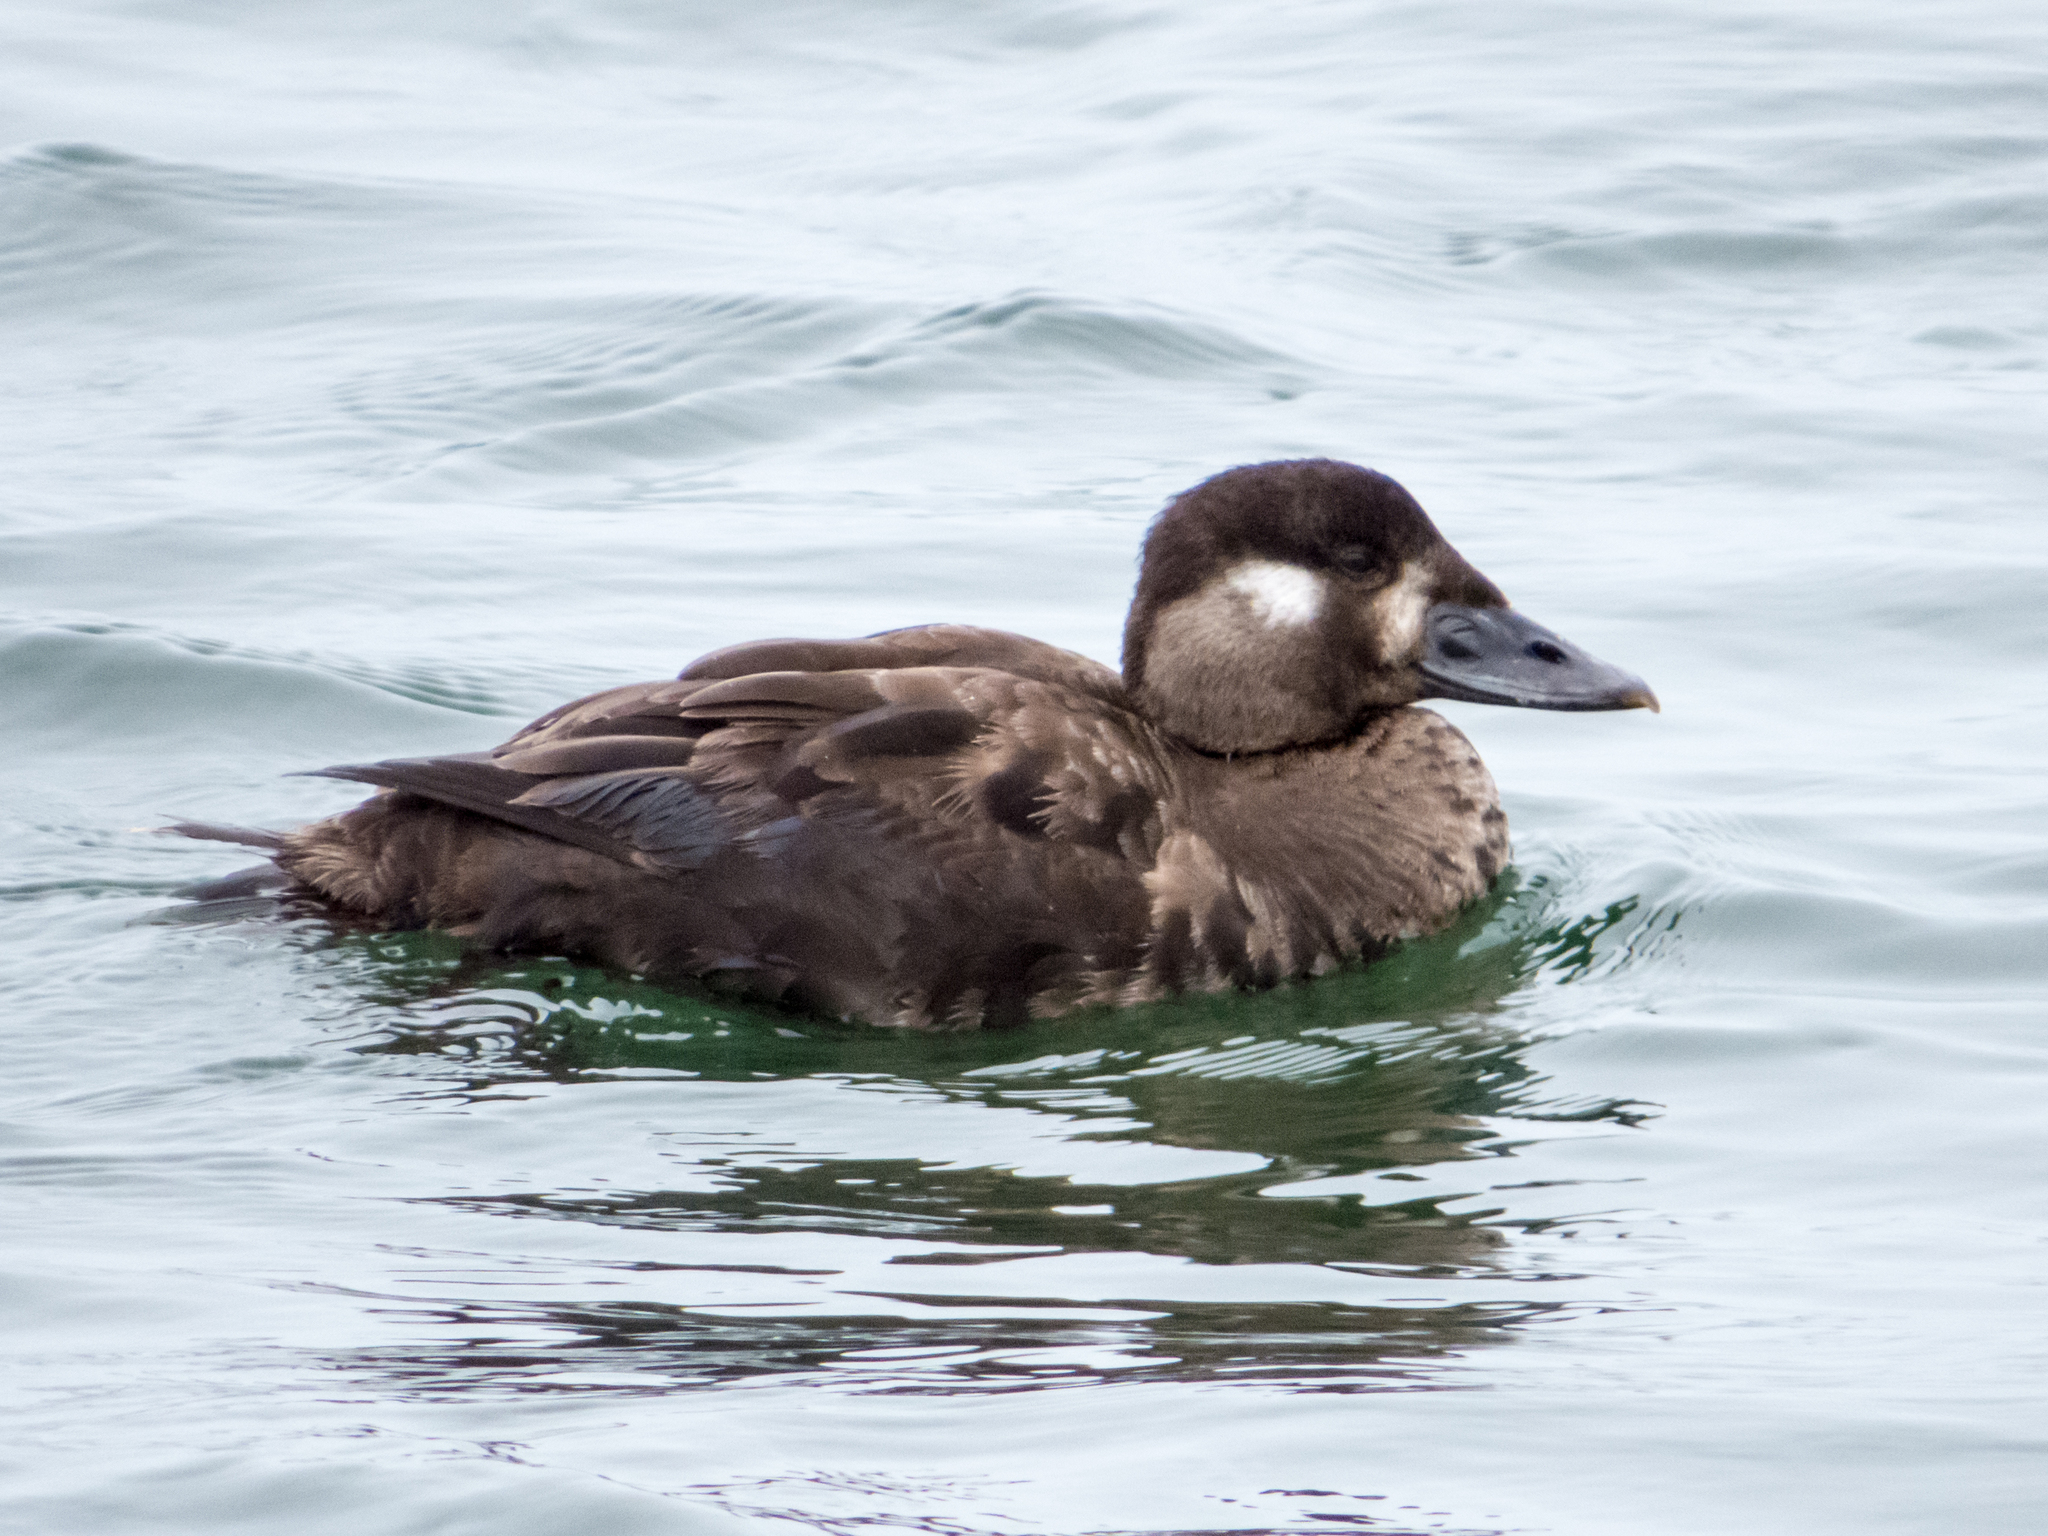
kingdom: Animalia
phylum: Chordata
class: Aves
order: Anseriformes
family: Anatidae
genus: Melanitta
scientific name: Melanitta perspicillata
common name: Surf scoter
